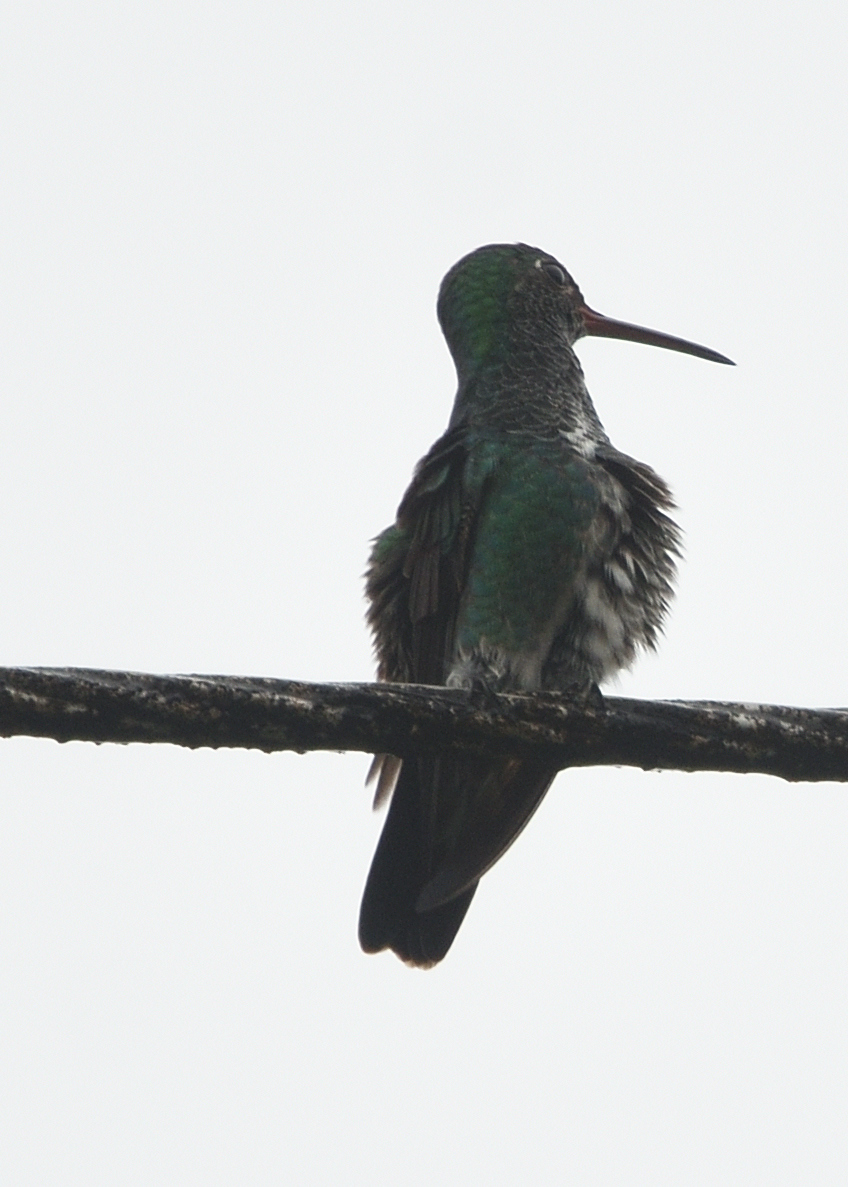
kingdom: Animalia
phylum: Chordata
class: Aves
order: Apodiformes
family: Trochilidae
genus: Chionomesa
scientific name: Chionomesa fimbriata
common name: Glittering-throated emerald
